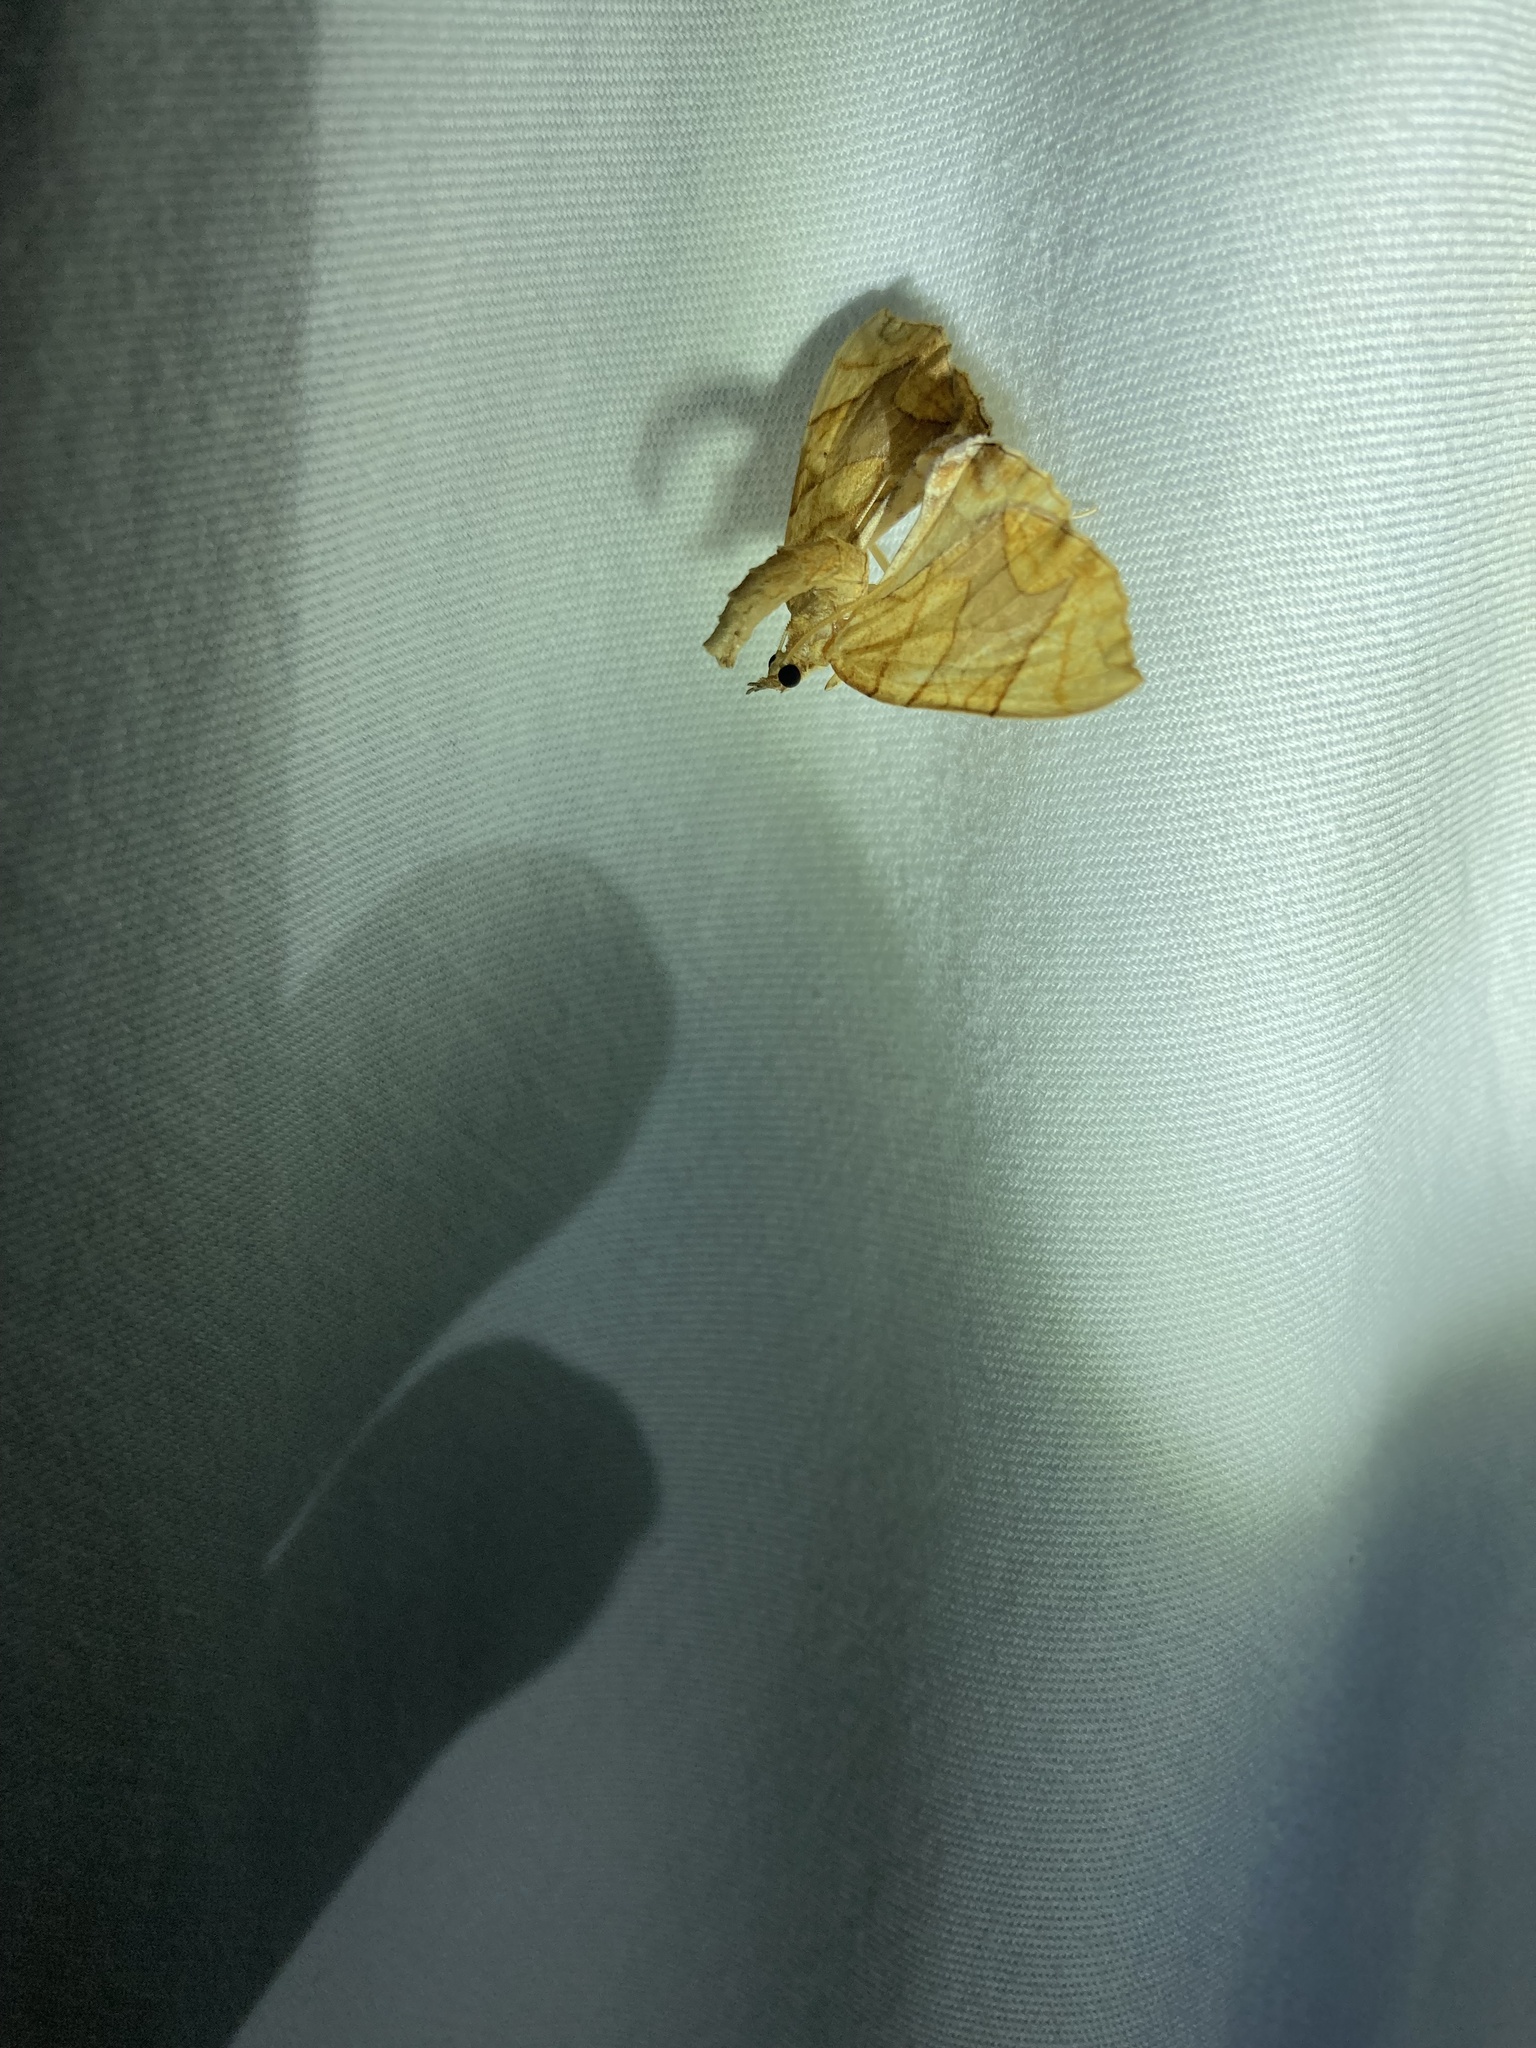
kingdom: Animalia
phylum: Arthropoda
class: Insecta
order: Lepidoptera
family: Geometridae
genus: Eulithis
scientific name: Eulithis diversilineata
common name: Grapevine looper
